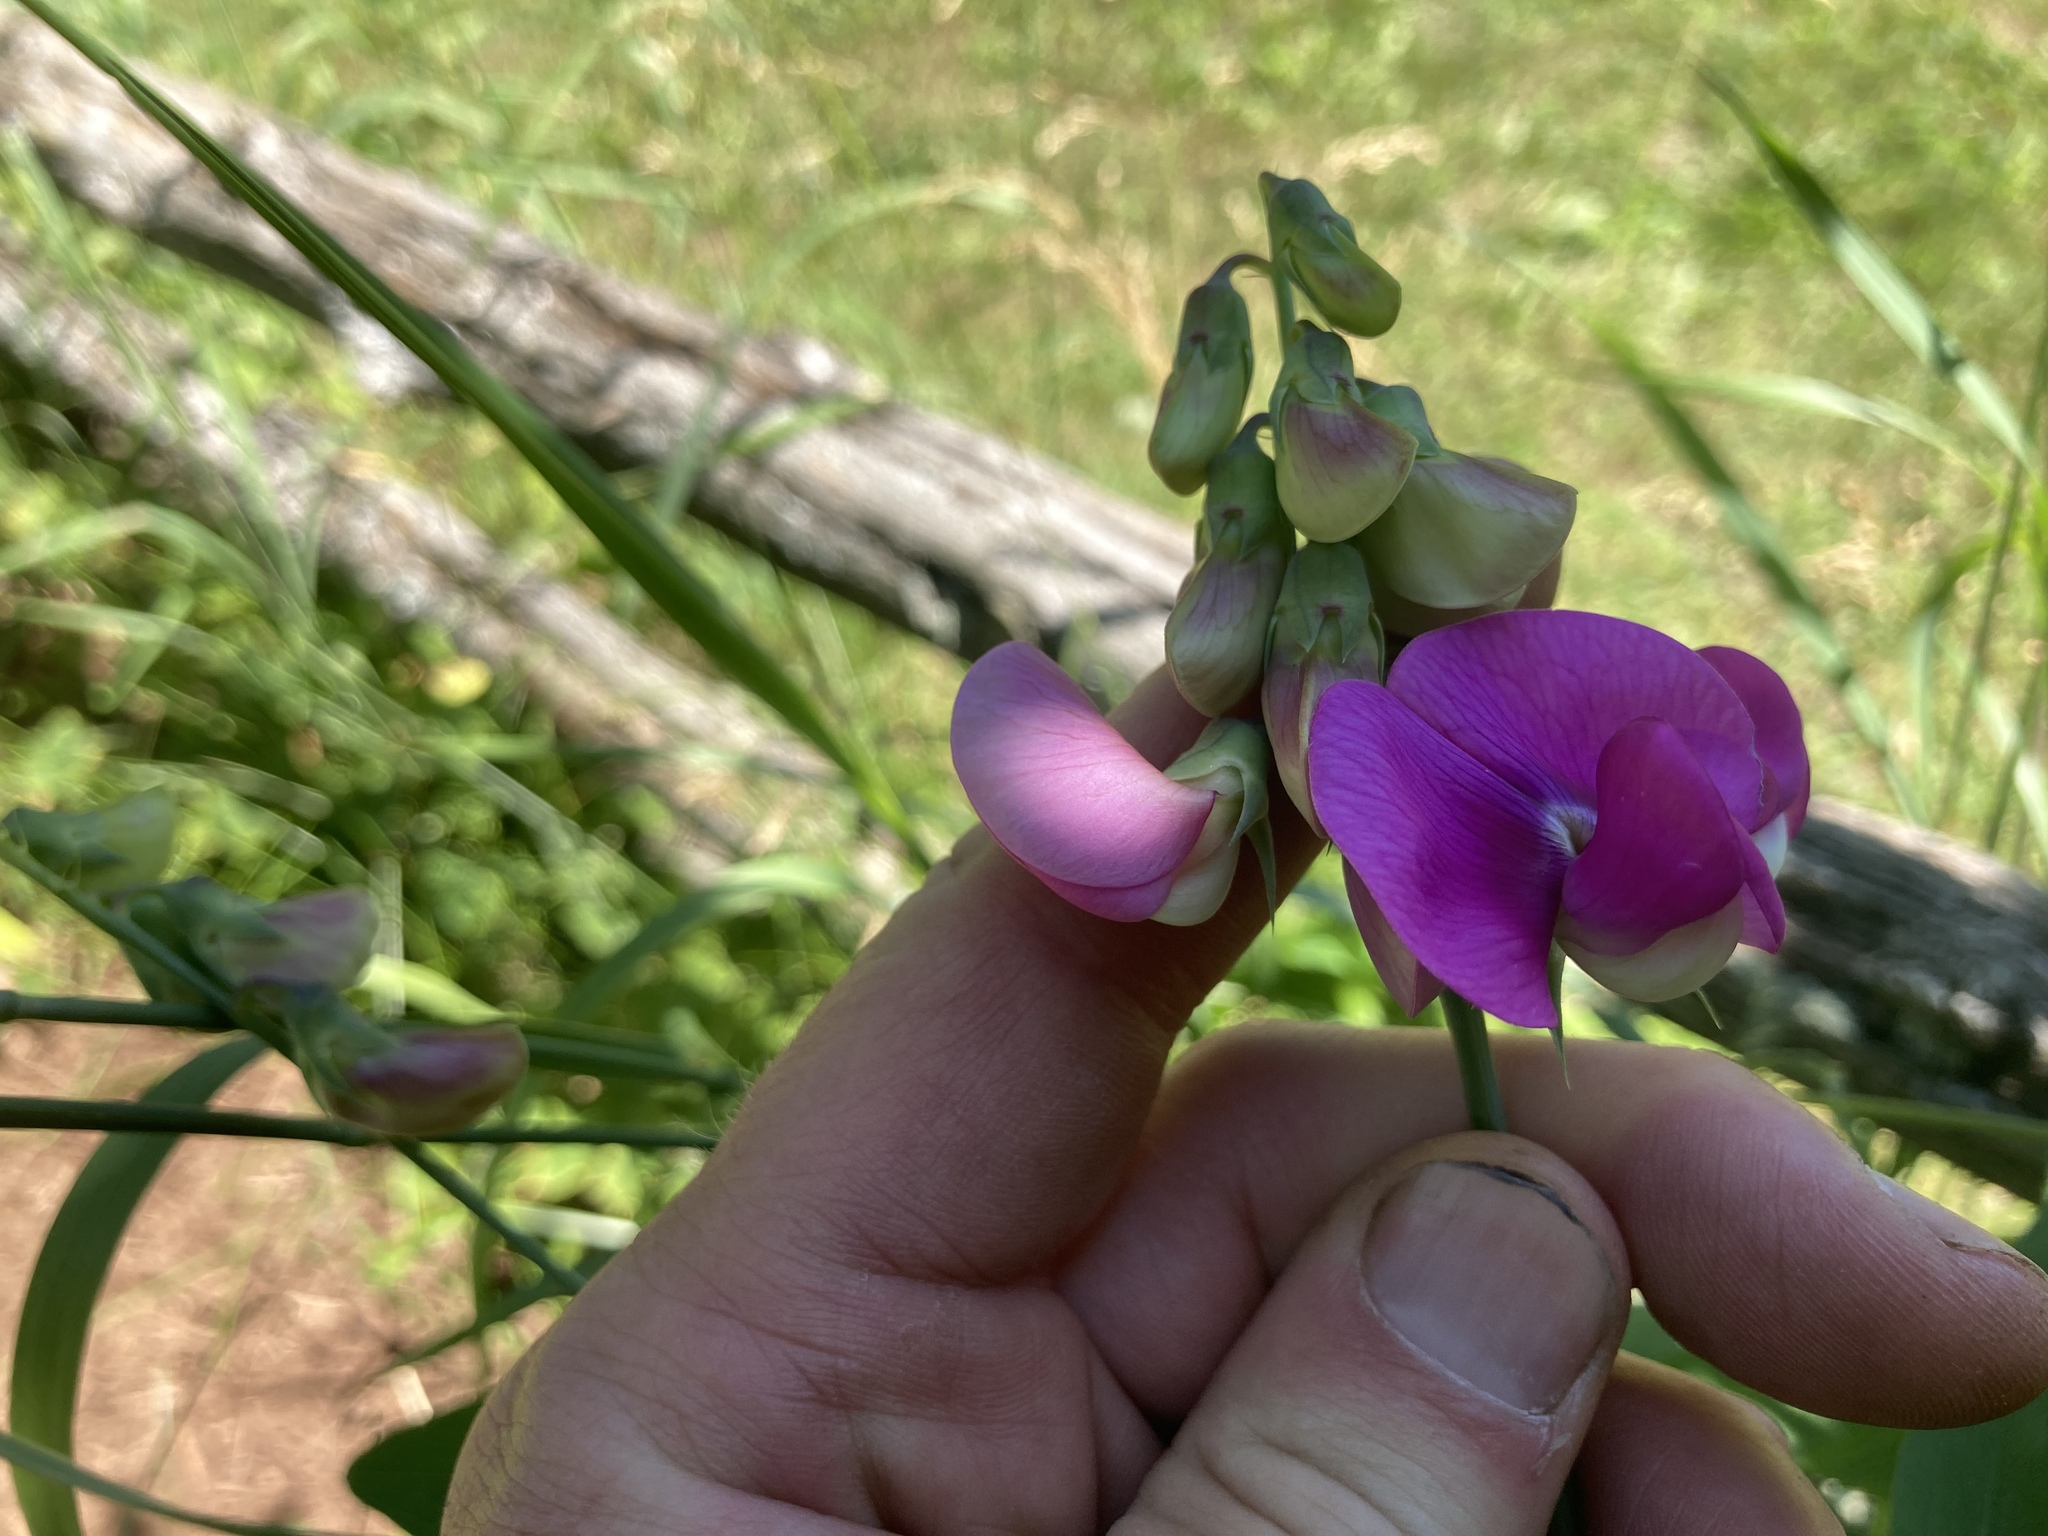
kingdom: Plantae
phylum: Tracheophyta
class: Magnoliopsida
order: Fabales
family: Fabaceae
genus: Lathyrus
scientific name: Lathyrus latifolius
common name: Perennial pea
